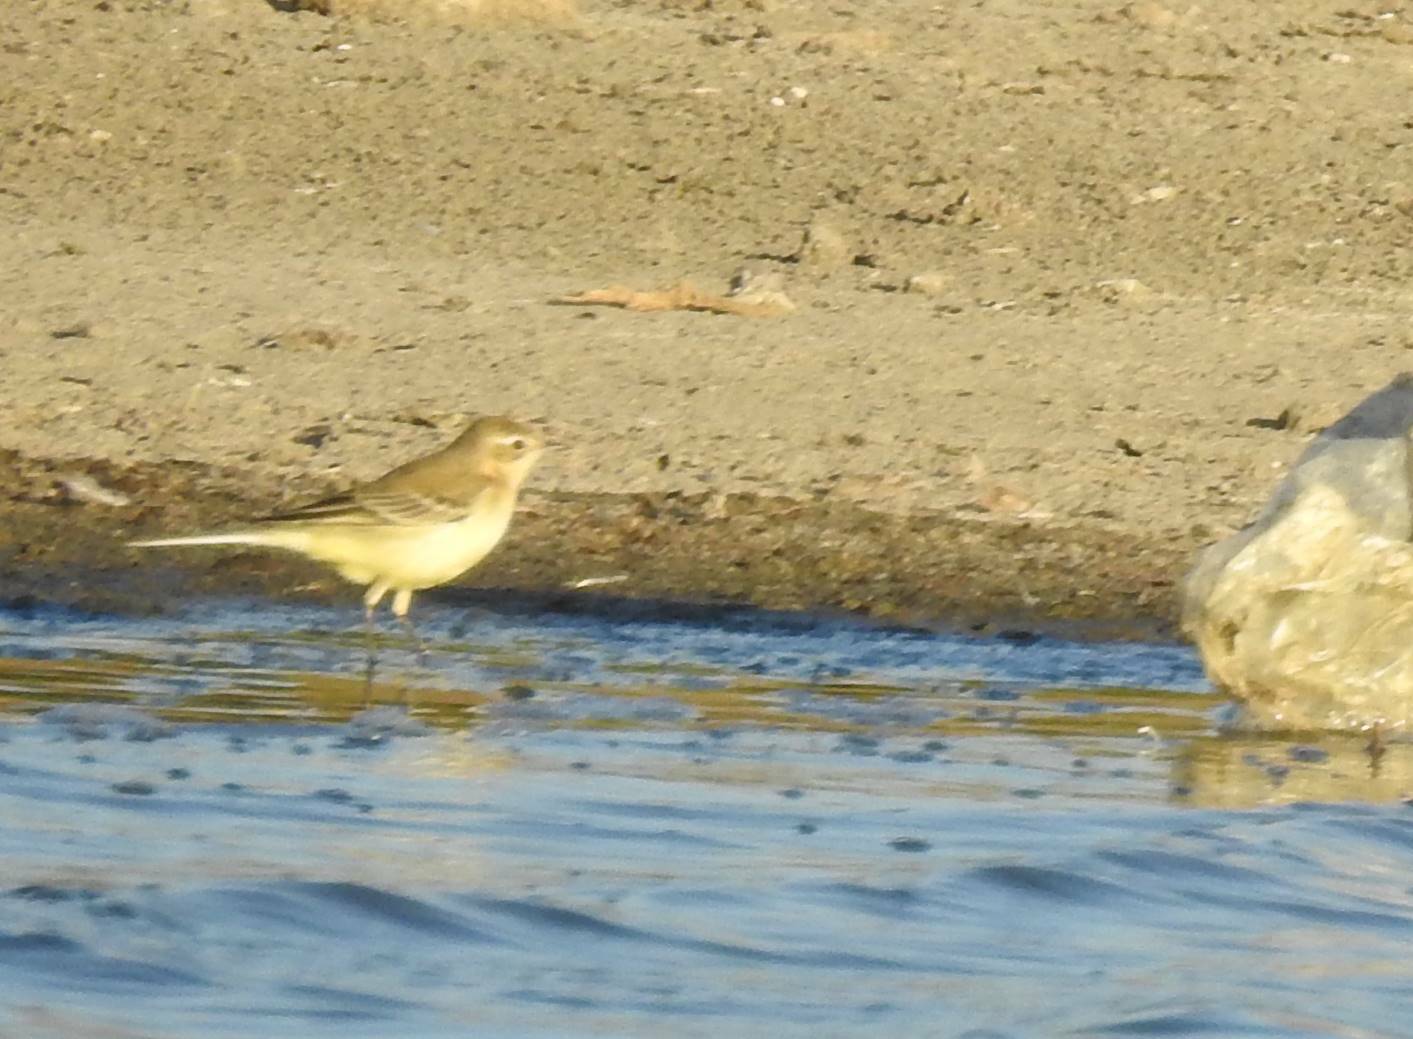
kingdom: Animalia
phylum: Chordata
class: Aves
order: Passeriformes
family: Motacillidae
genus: Motacilla
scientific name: Motacilla flava
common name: Western yellow wagtail
